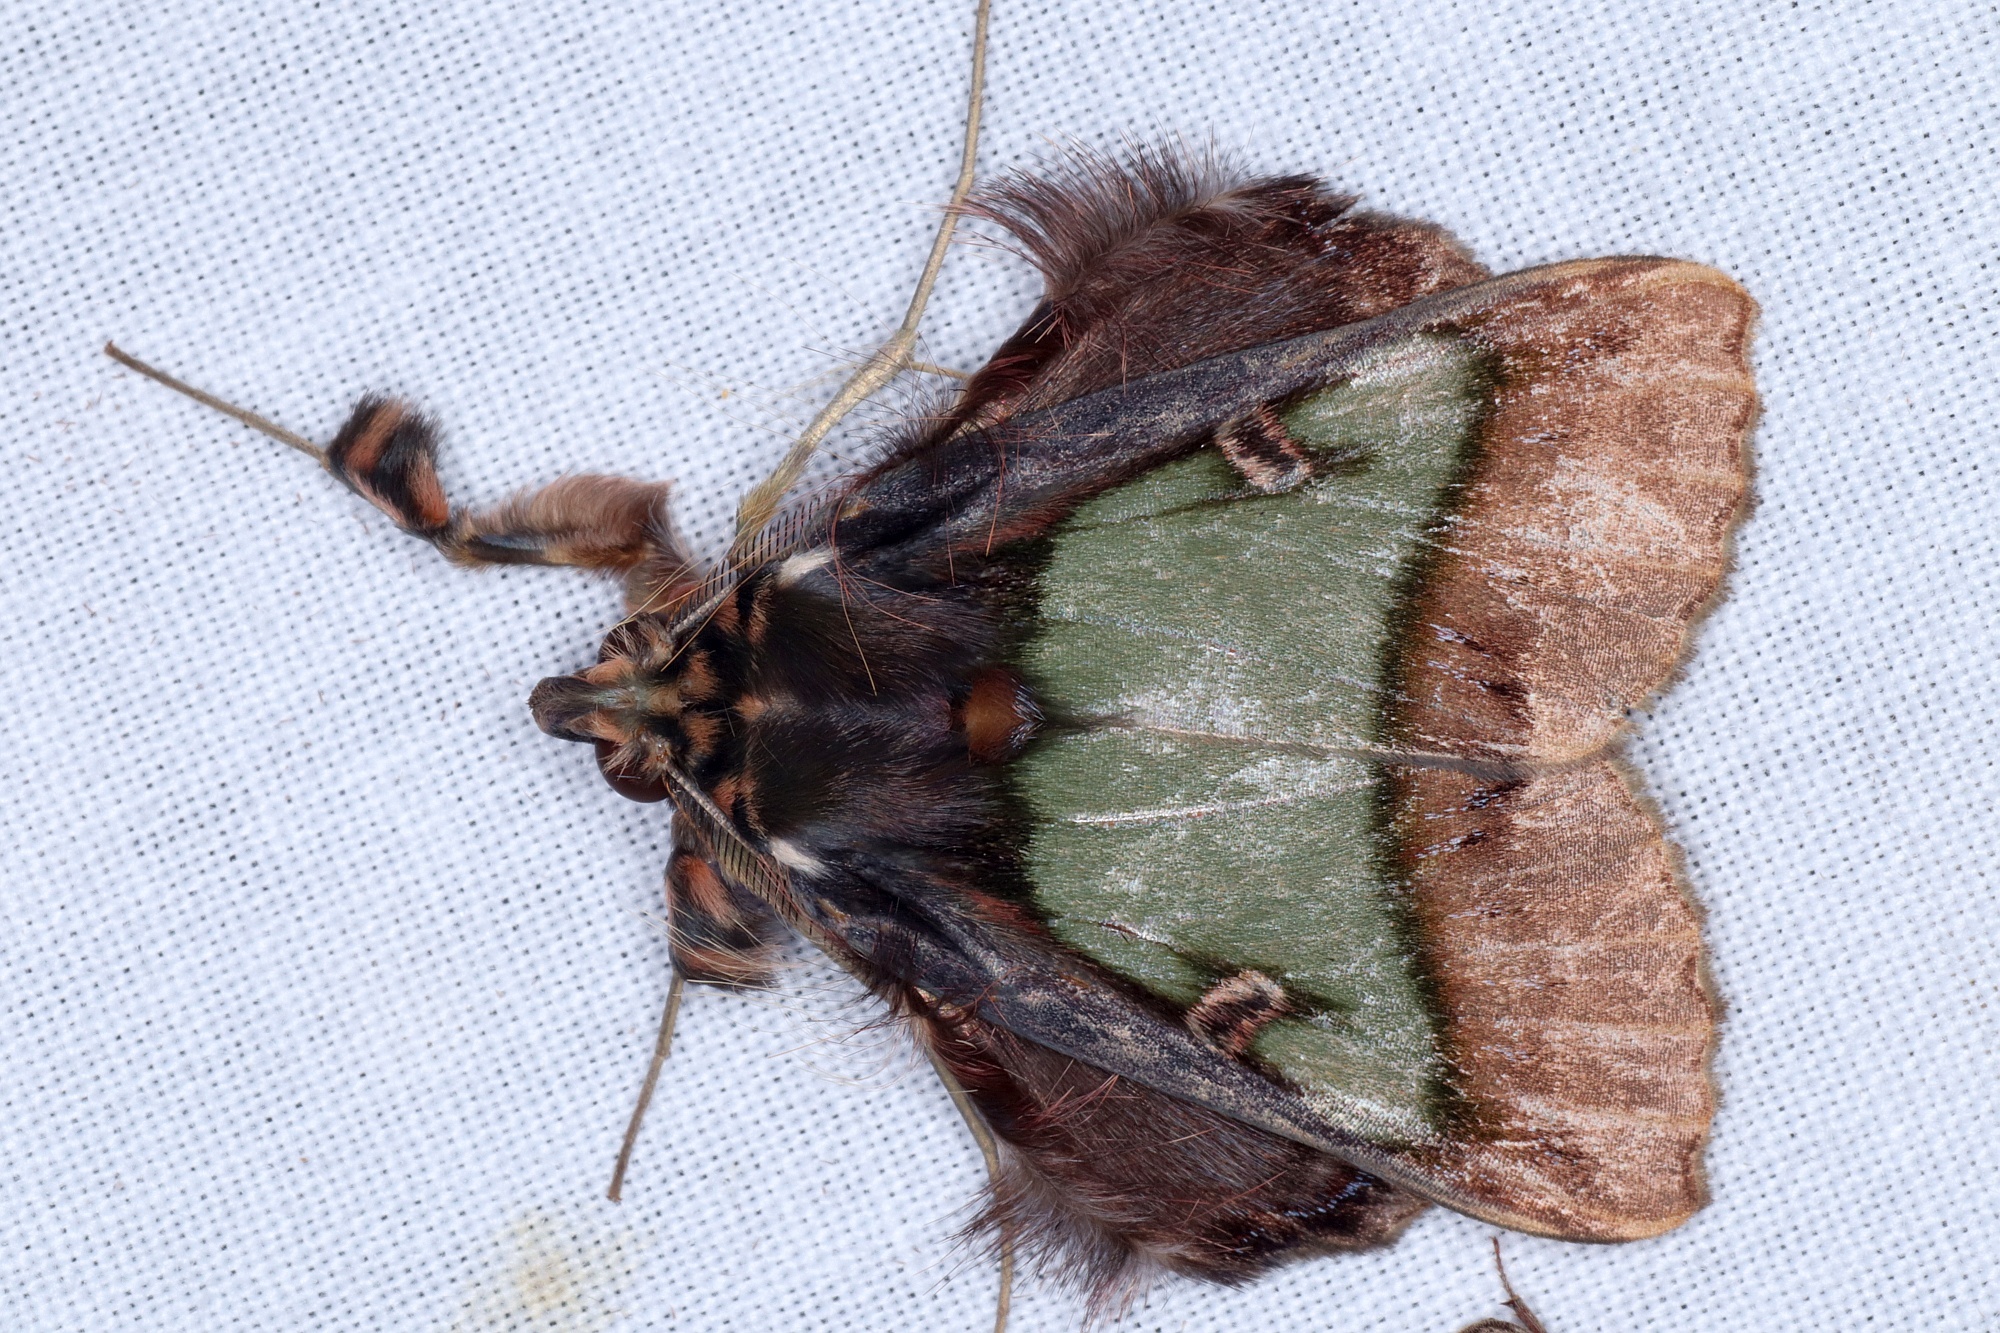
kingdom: Animalia
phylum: Arthropoda
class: Insecta
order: Lepidoptera
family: Erebidae
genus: Ceroctena
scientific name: Ceroctena amynta
